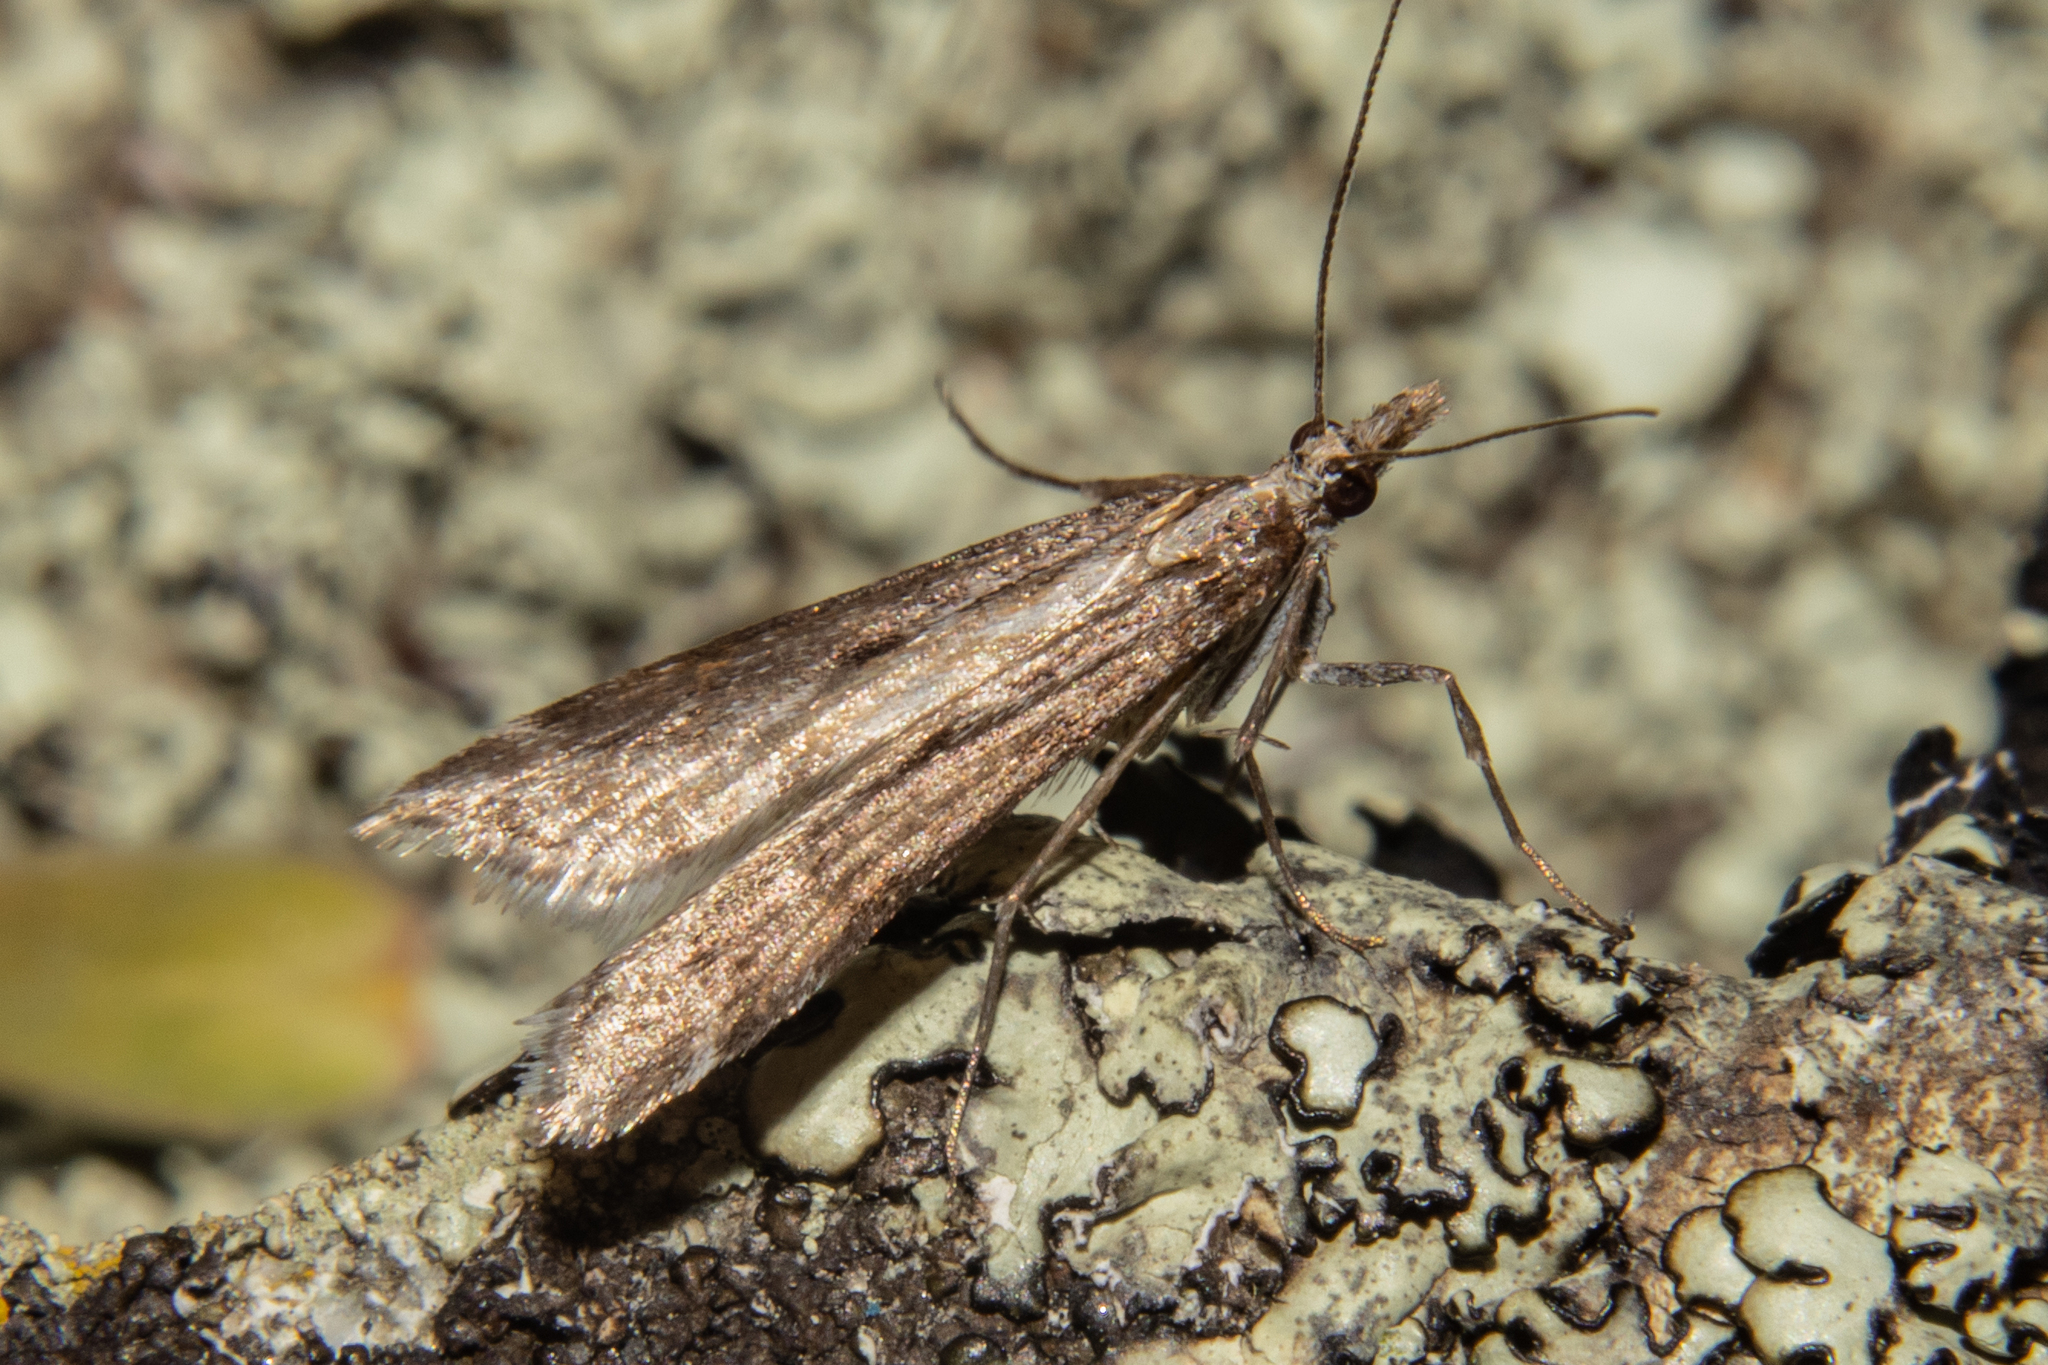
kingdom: Animalia
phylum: Arthropoda
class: Insecta
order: Lepidoptera
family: Crambidae
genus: Scoparia
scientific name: Scoparia exilis
